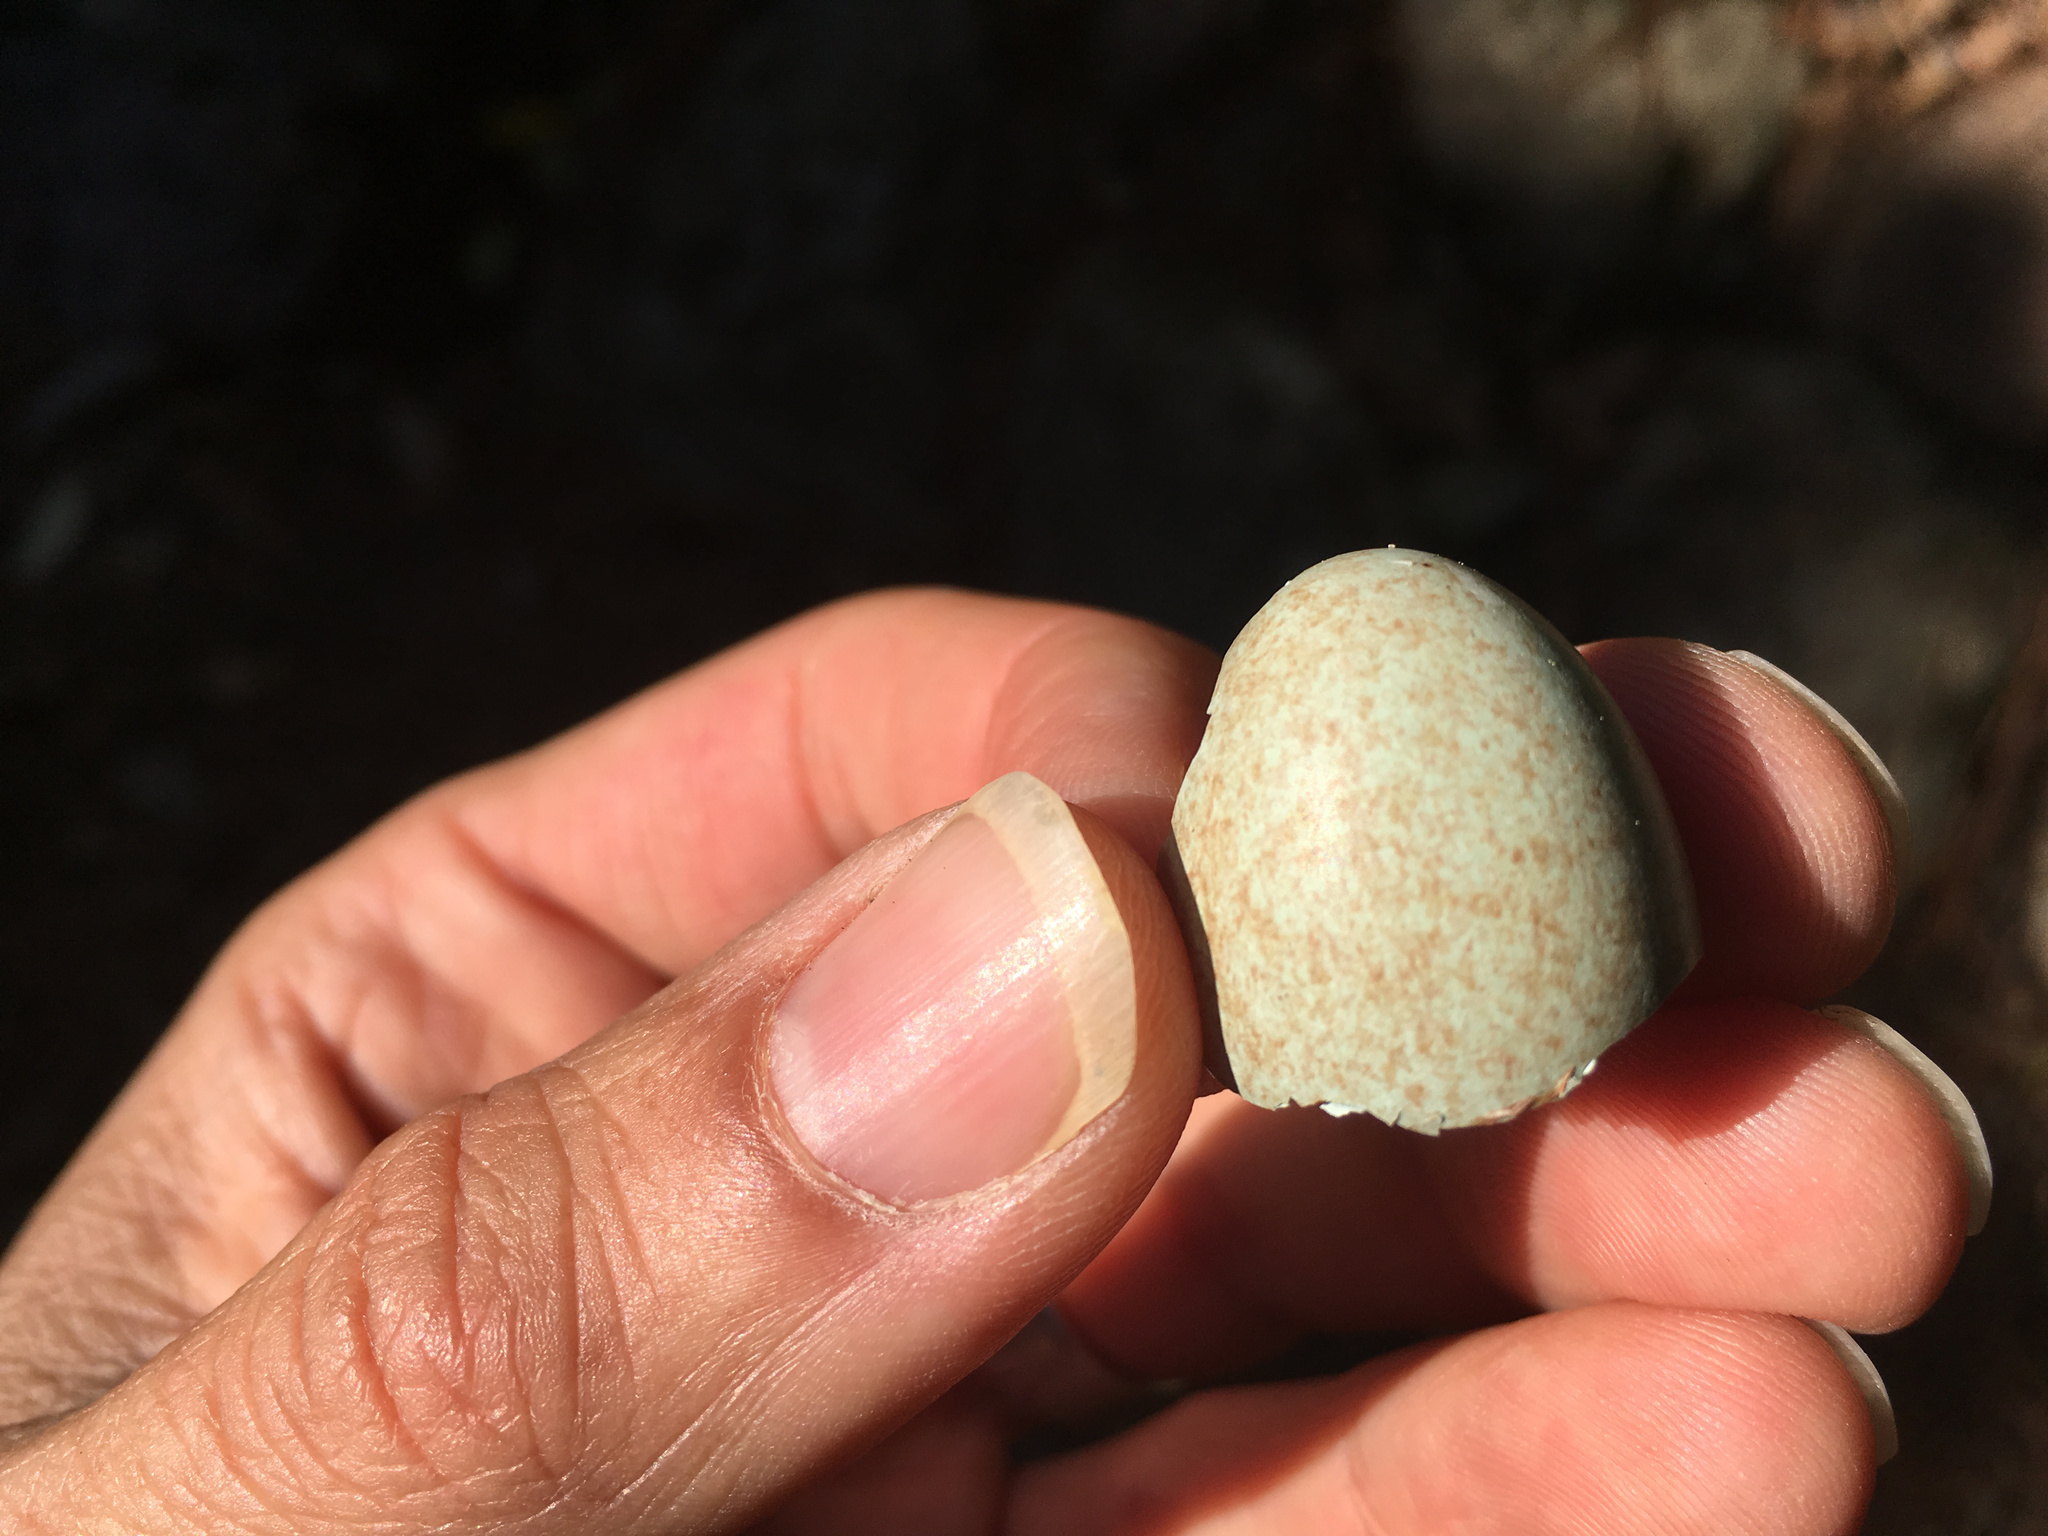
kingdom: Animalia
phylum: Chordata
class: Aves
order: Passeriformes
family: Turdidae
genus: Turdus
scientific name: Turdus merula
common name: Common blackbird
